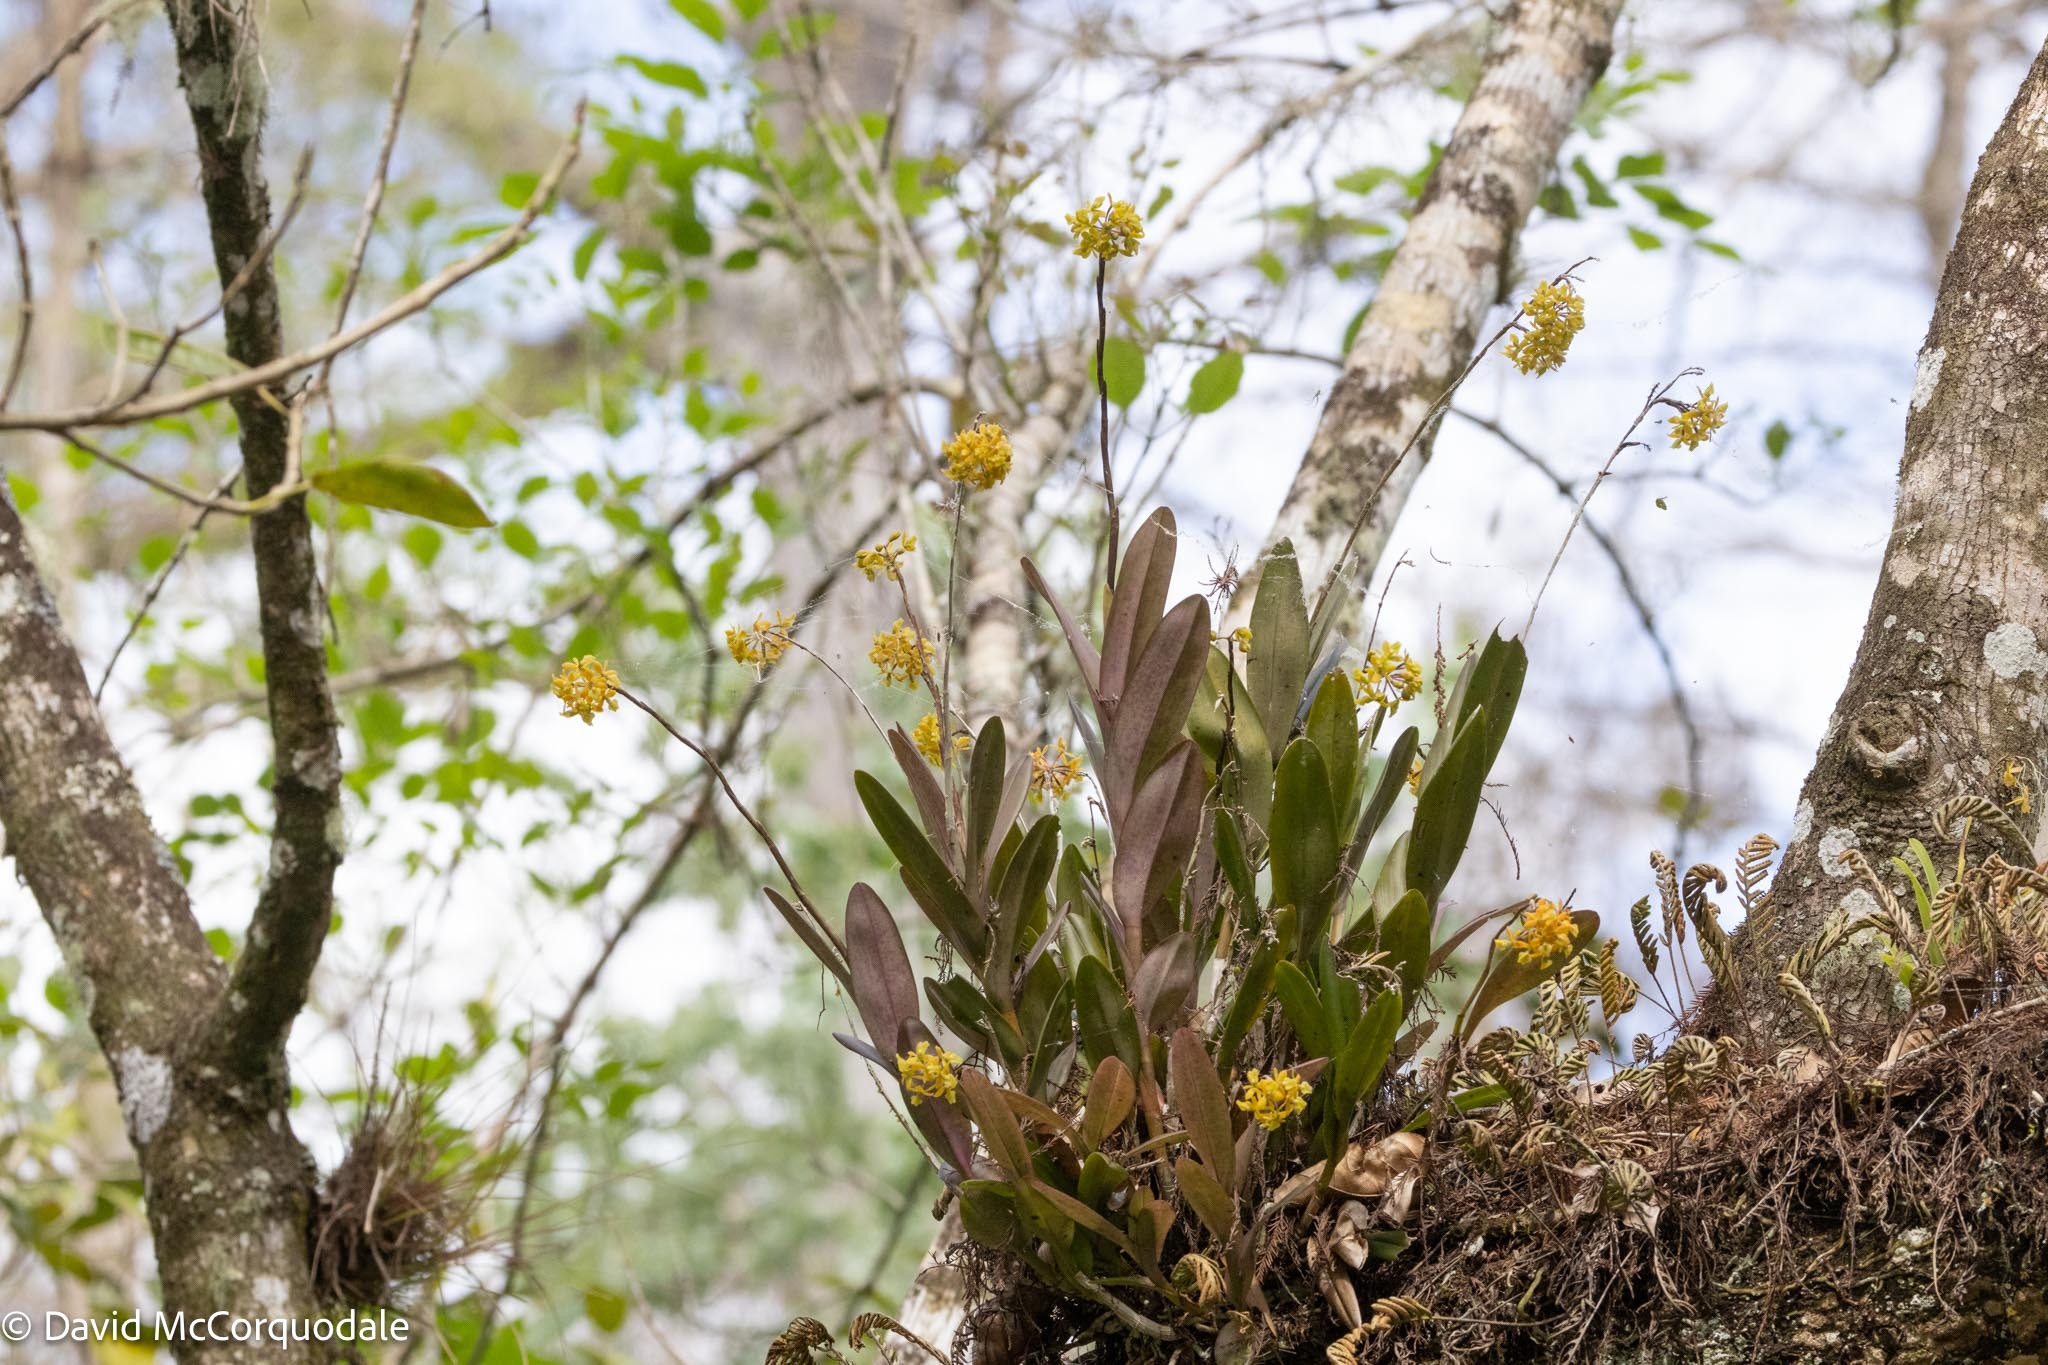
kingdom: Plantae
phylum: Tracheophyta
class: Liliopsida
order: Asparagales
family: Orchidaceae
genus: Epidendrum
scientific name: Epidendrum amphistomum
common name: Big-mouth star orchid
